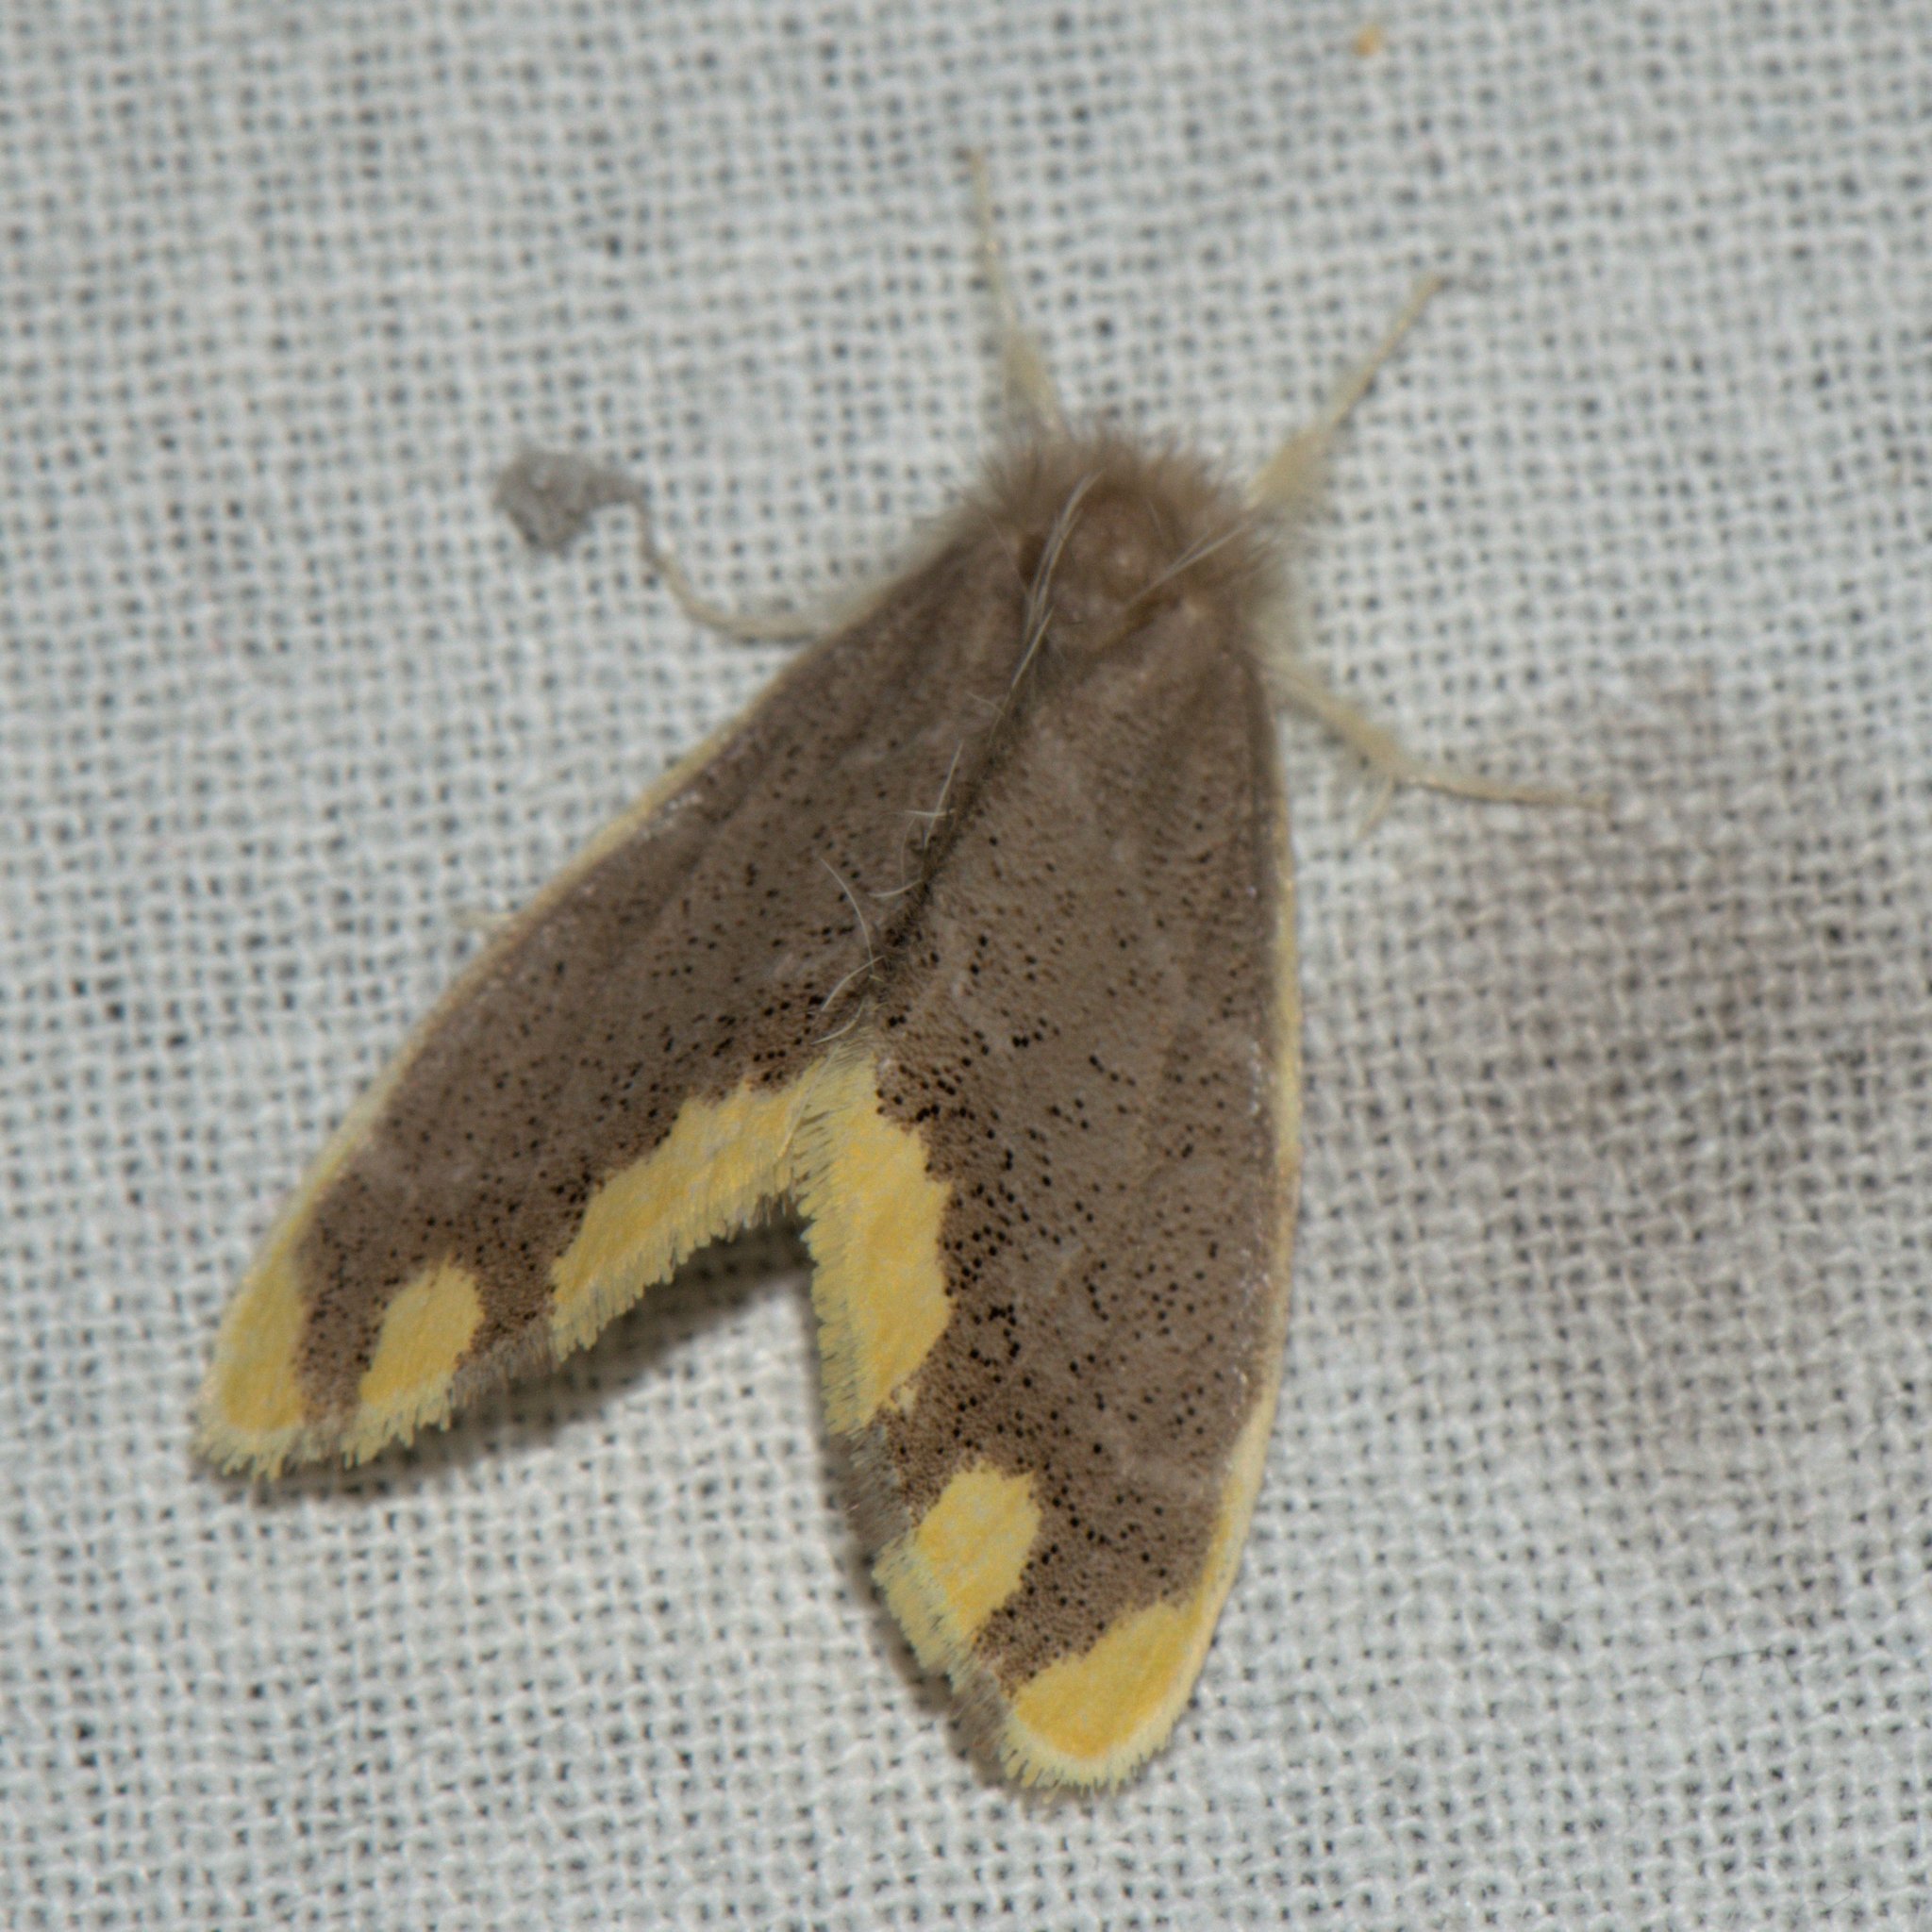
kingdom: Animalia
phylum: Arthropoda
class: Insecta
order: Lepidoptera
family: Erebidae
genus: Orvasca
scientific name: Orvasca subnotata
